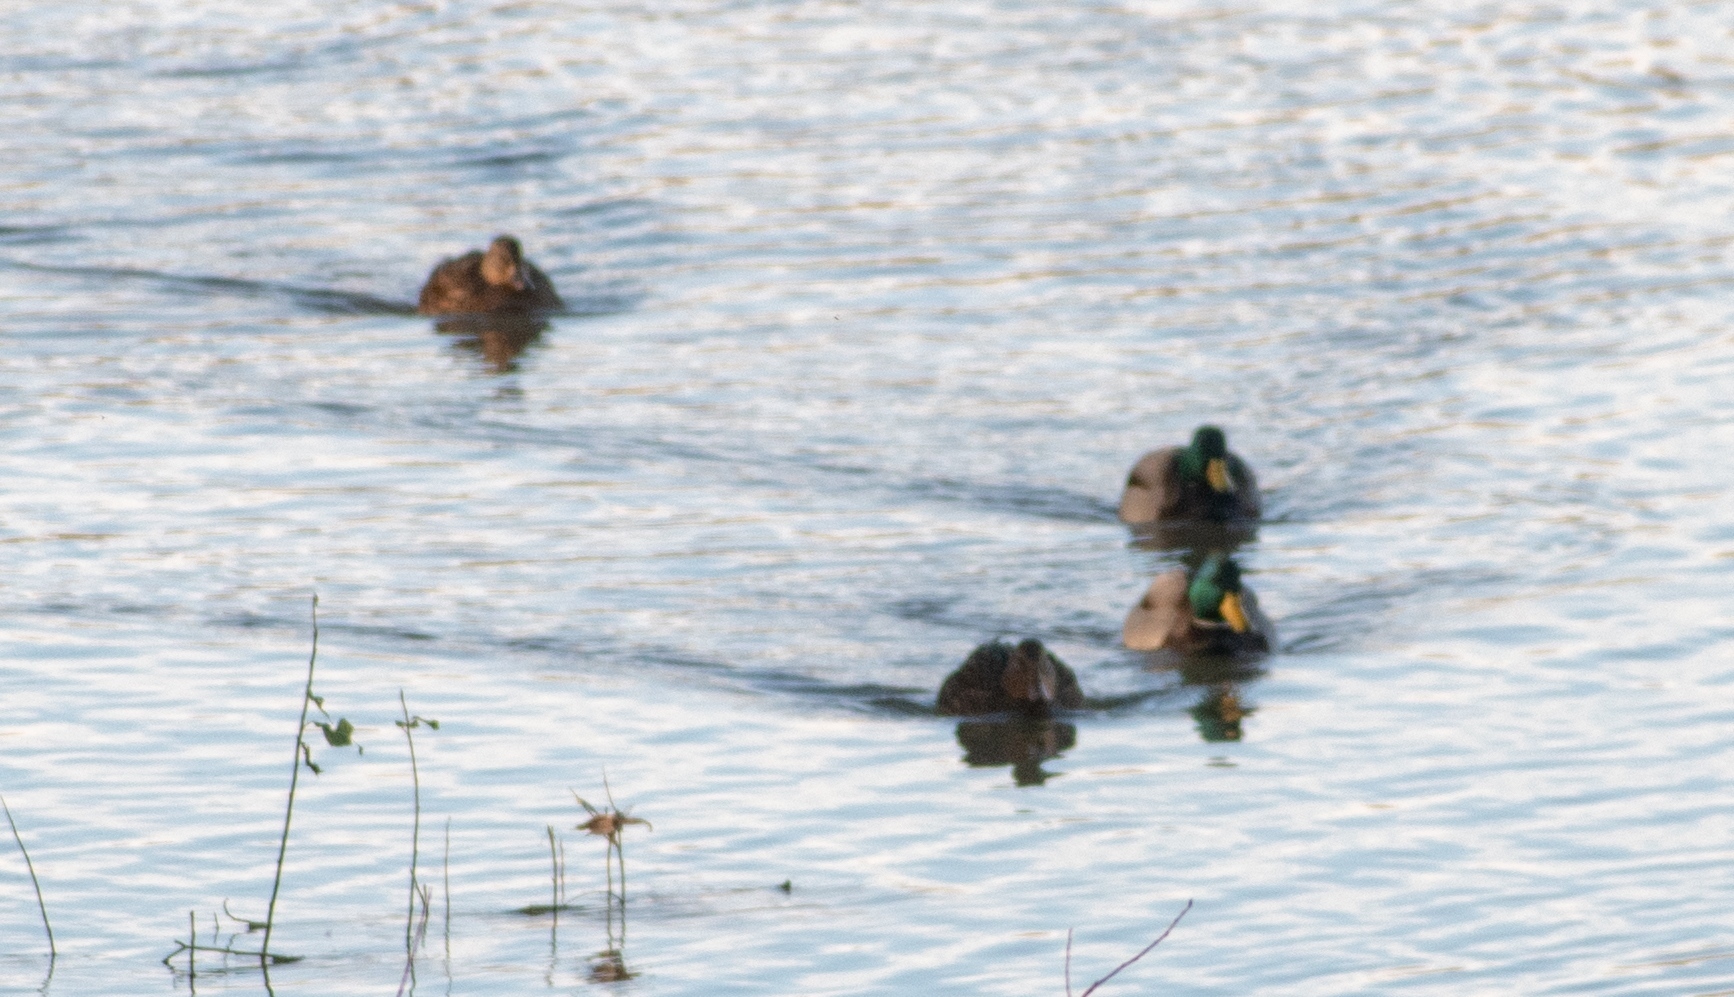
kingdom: Animalia
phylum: Chordata
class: Aves
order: Anseriformes
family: Anatidae
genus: Anas
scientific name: Anas platyrhynchos
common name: Mallard
